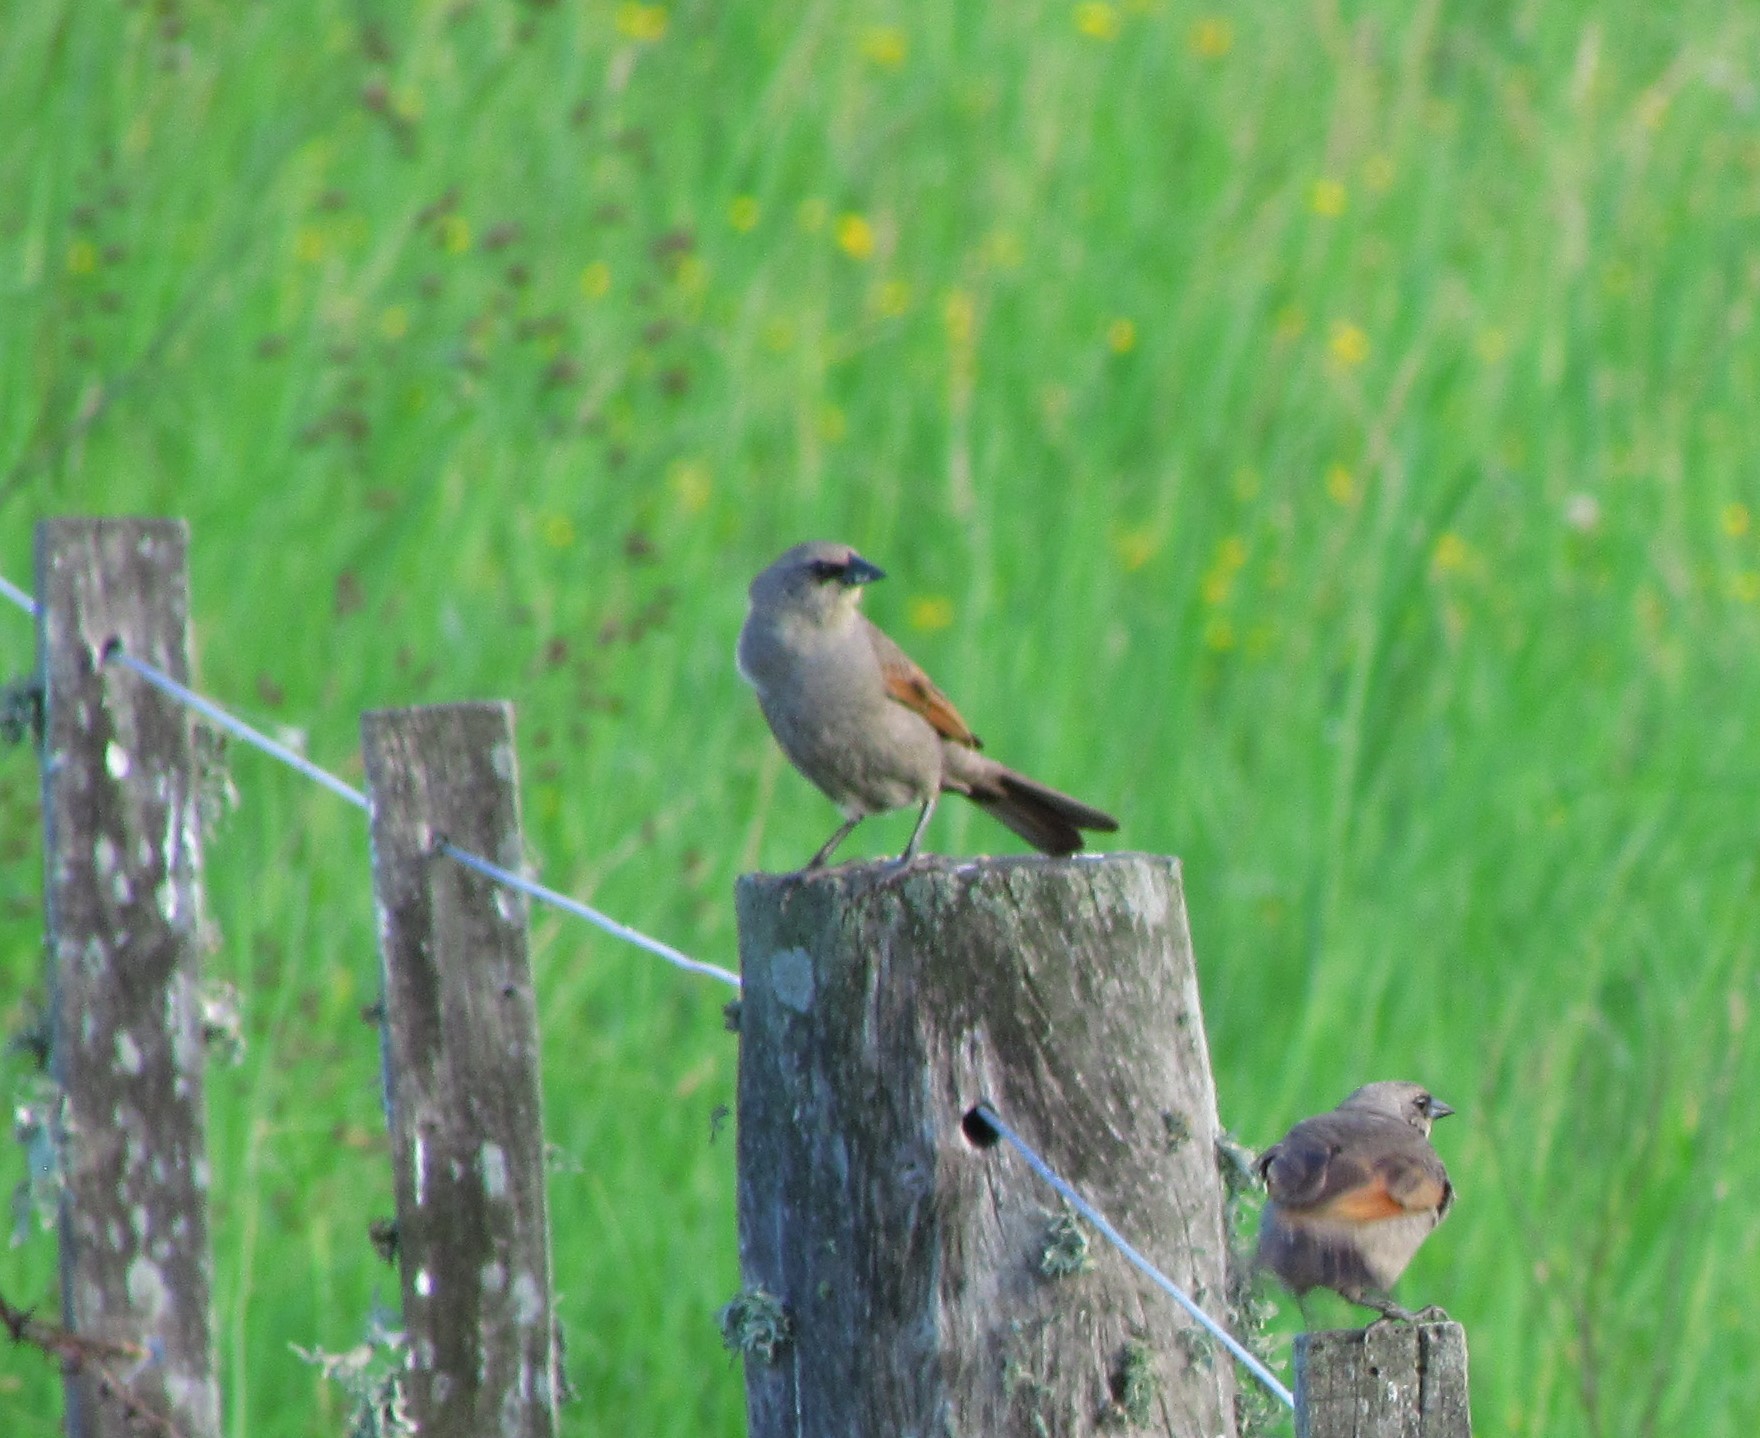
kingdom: Animalia
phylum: Chordata
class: Aves
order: Passeriformes
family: Icteridae
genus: Agelaioides
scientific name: Agelaioides badius
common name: Baywing
